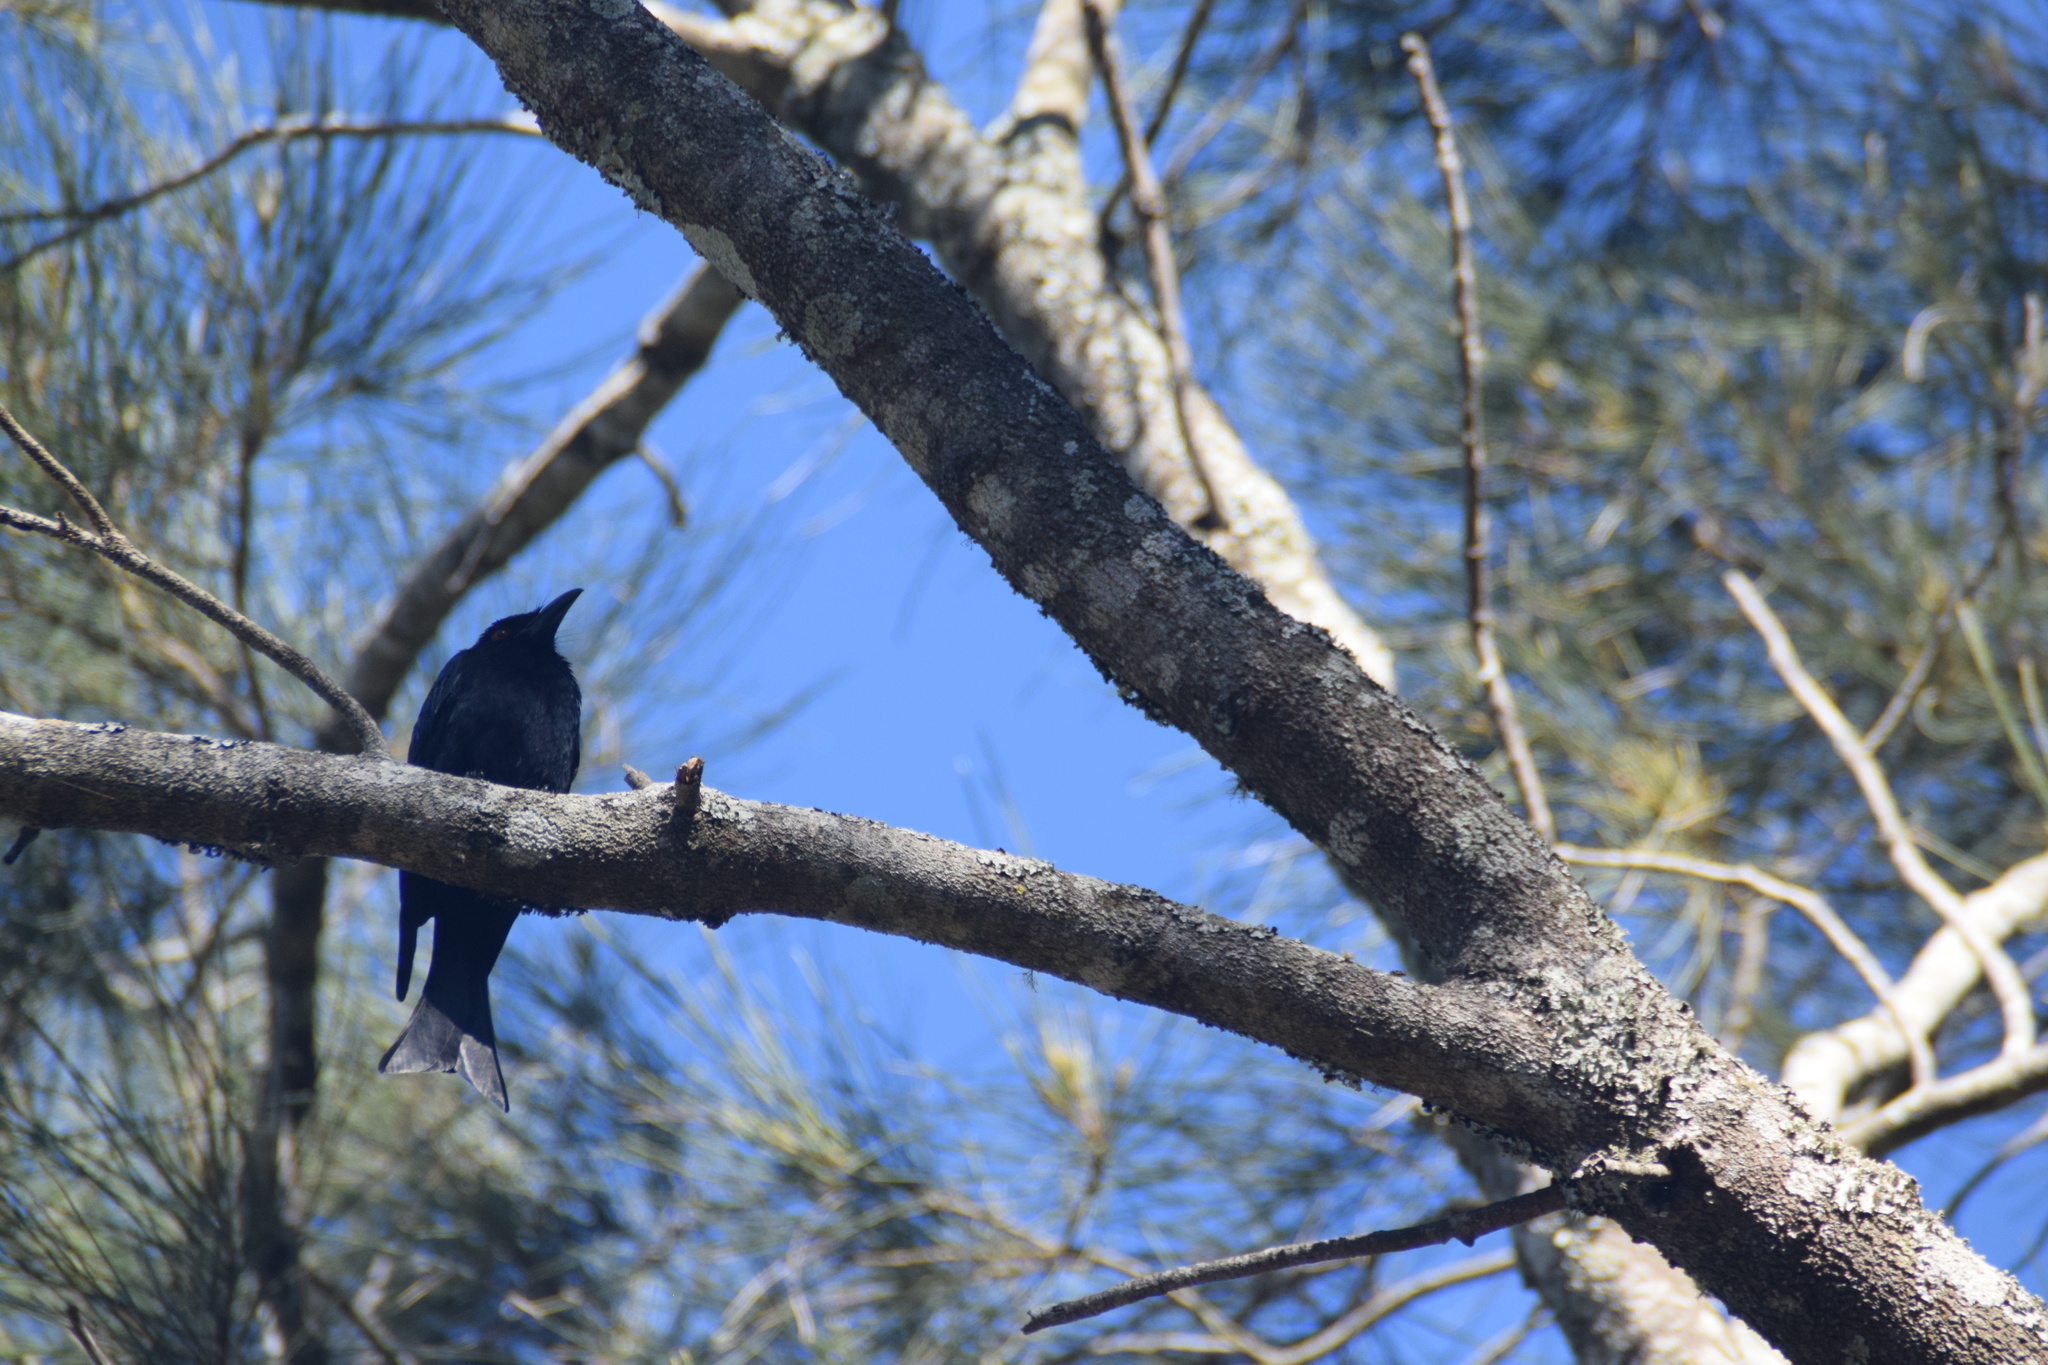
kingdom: Animalia
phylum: Chordata
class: Aves
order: Passeriformes
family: Dicruridae
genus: Dicrurus
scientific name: Dicrurus bracteatus
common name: Spangled drongo
